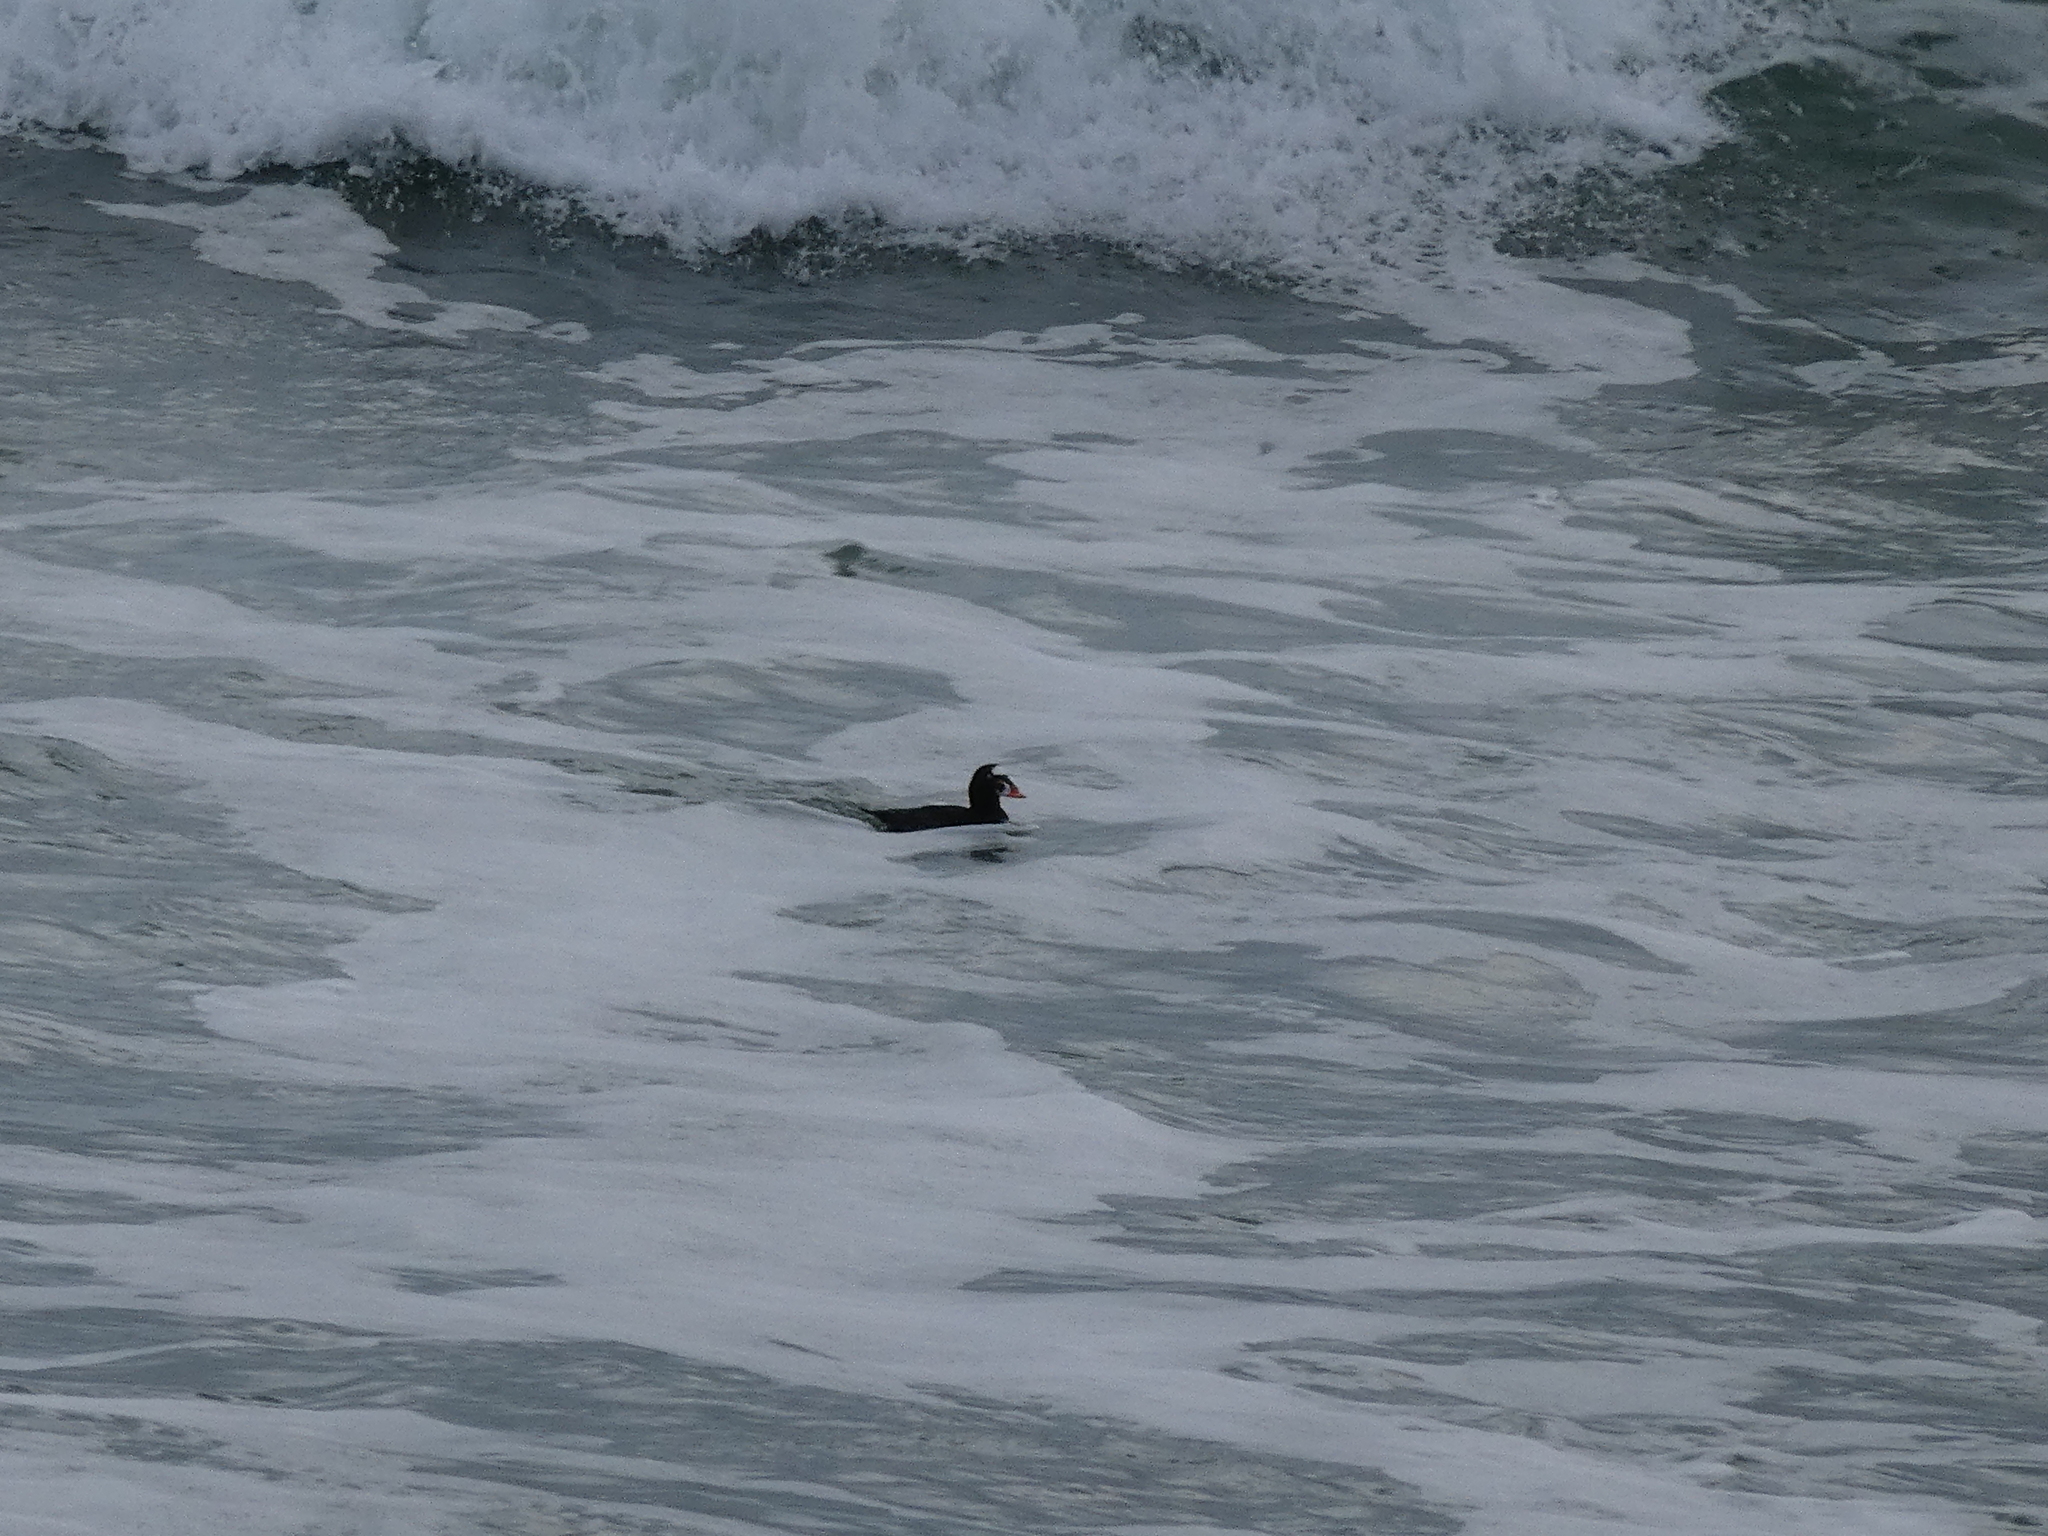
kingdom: Animalia
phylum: Chordata
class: Aves
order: Anseriformes
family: Anatidae
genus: Melanitta
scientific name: Melanitta perspicillata
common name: Surf scoter
